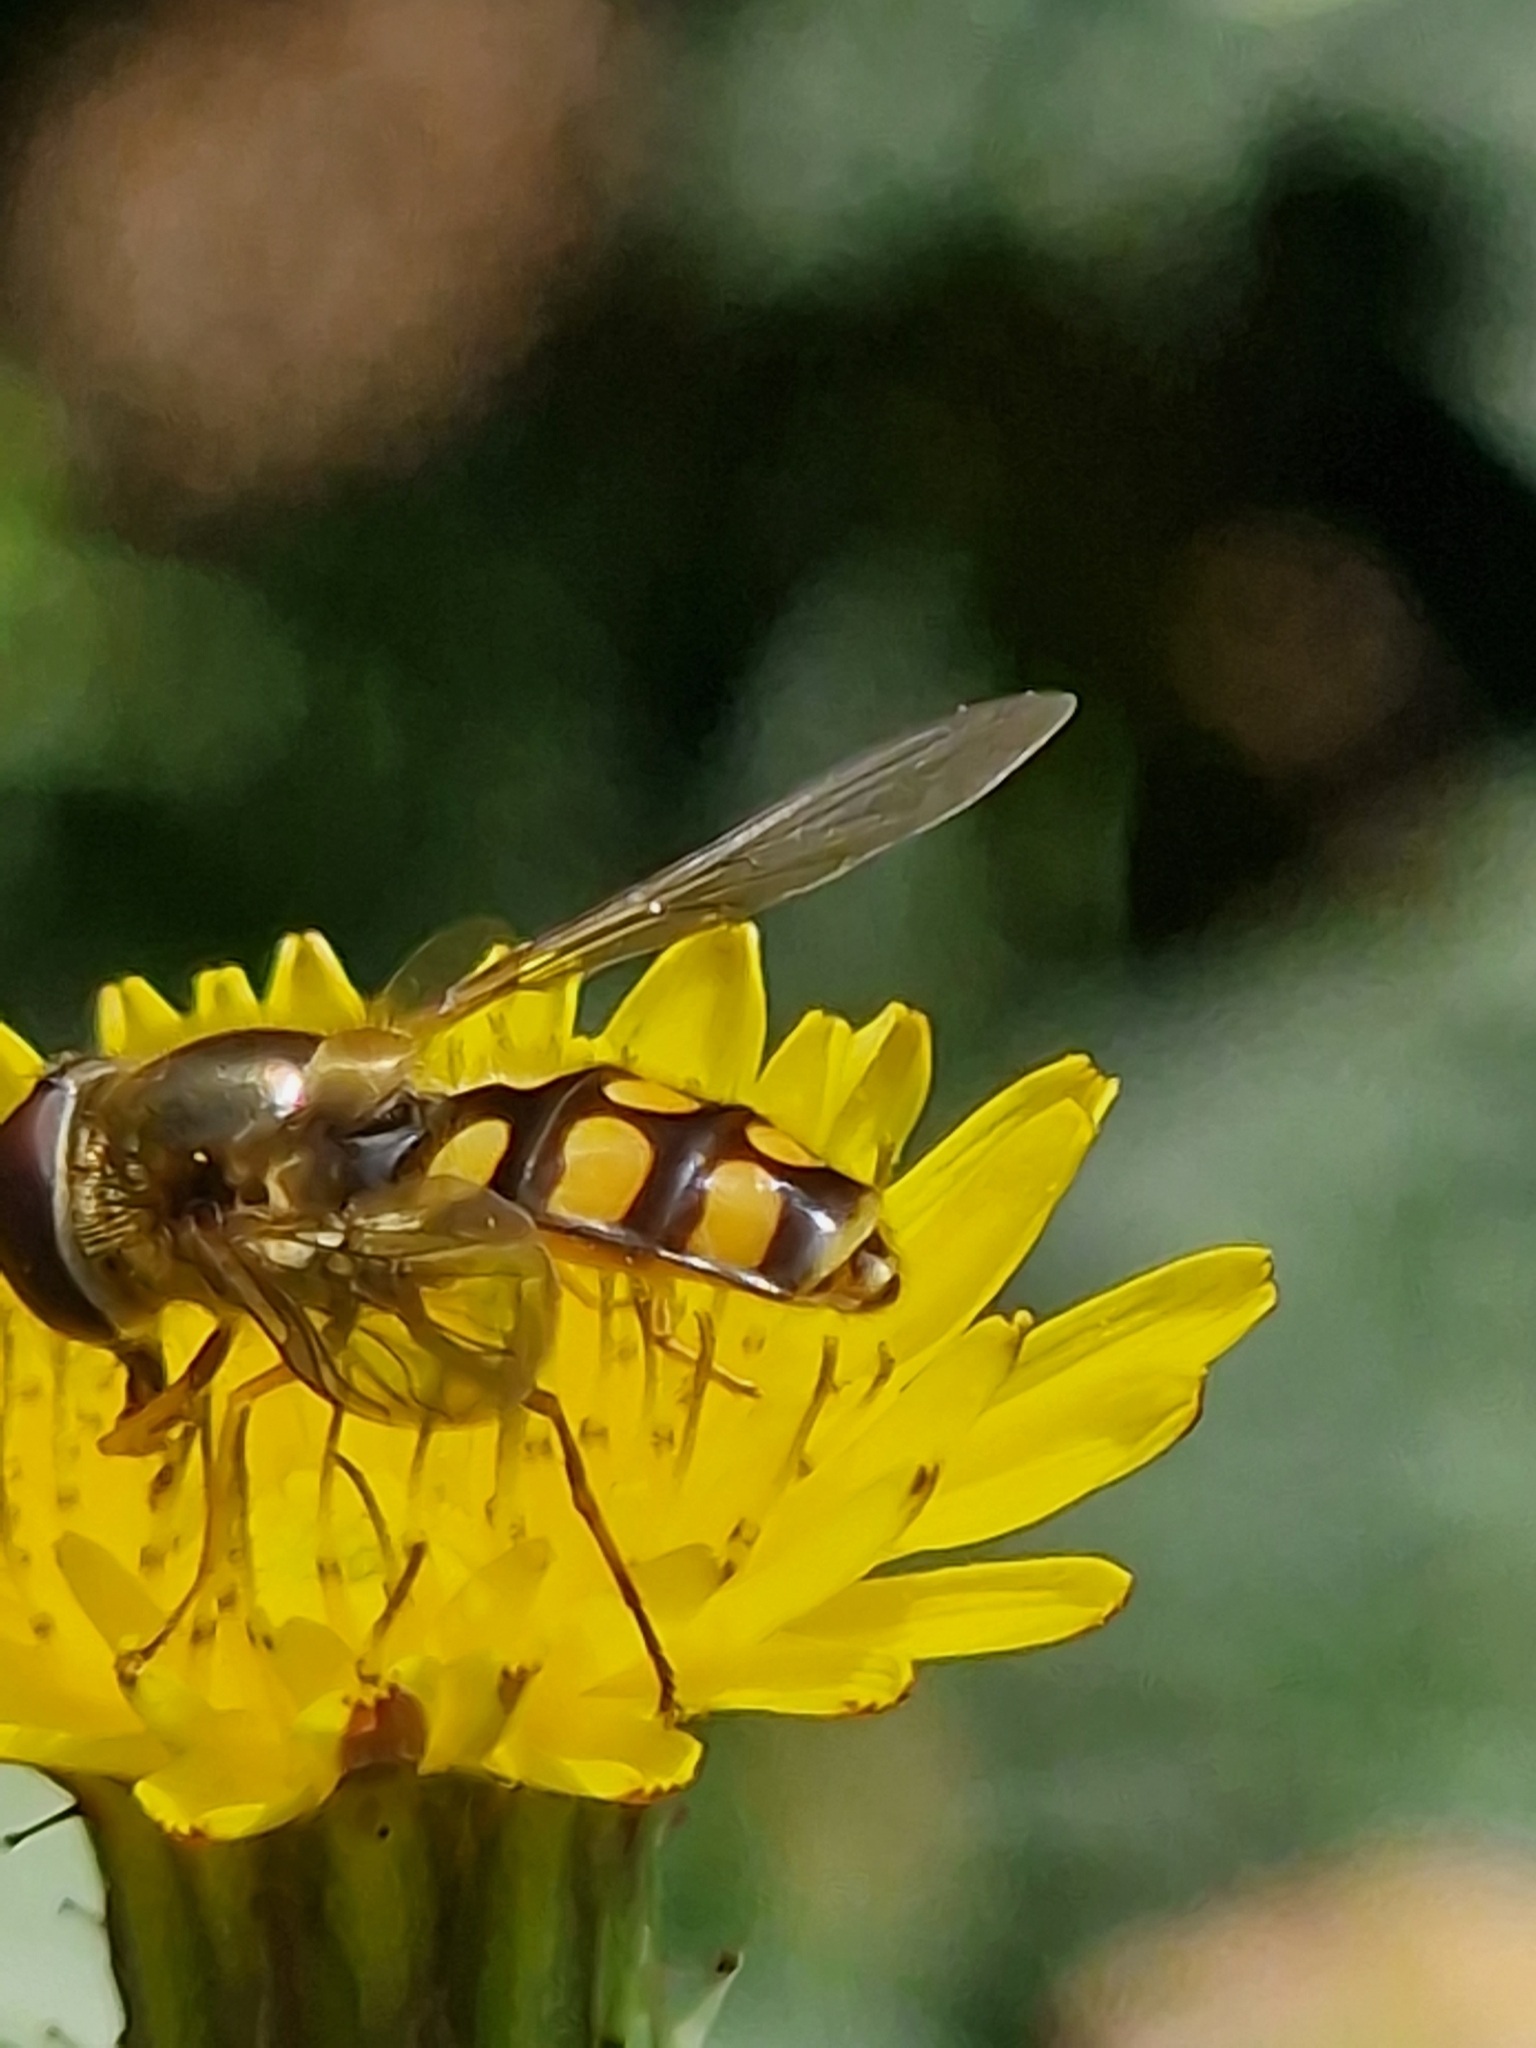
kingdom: Animalia
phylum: Arthropoda
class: Insecta
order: Diptera
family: Syrphidae
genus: Eupeodes
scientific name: Eupeodes luniger
